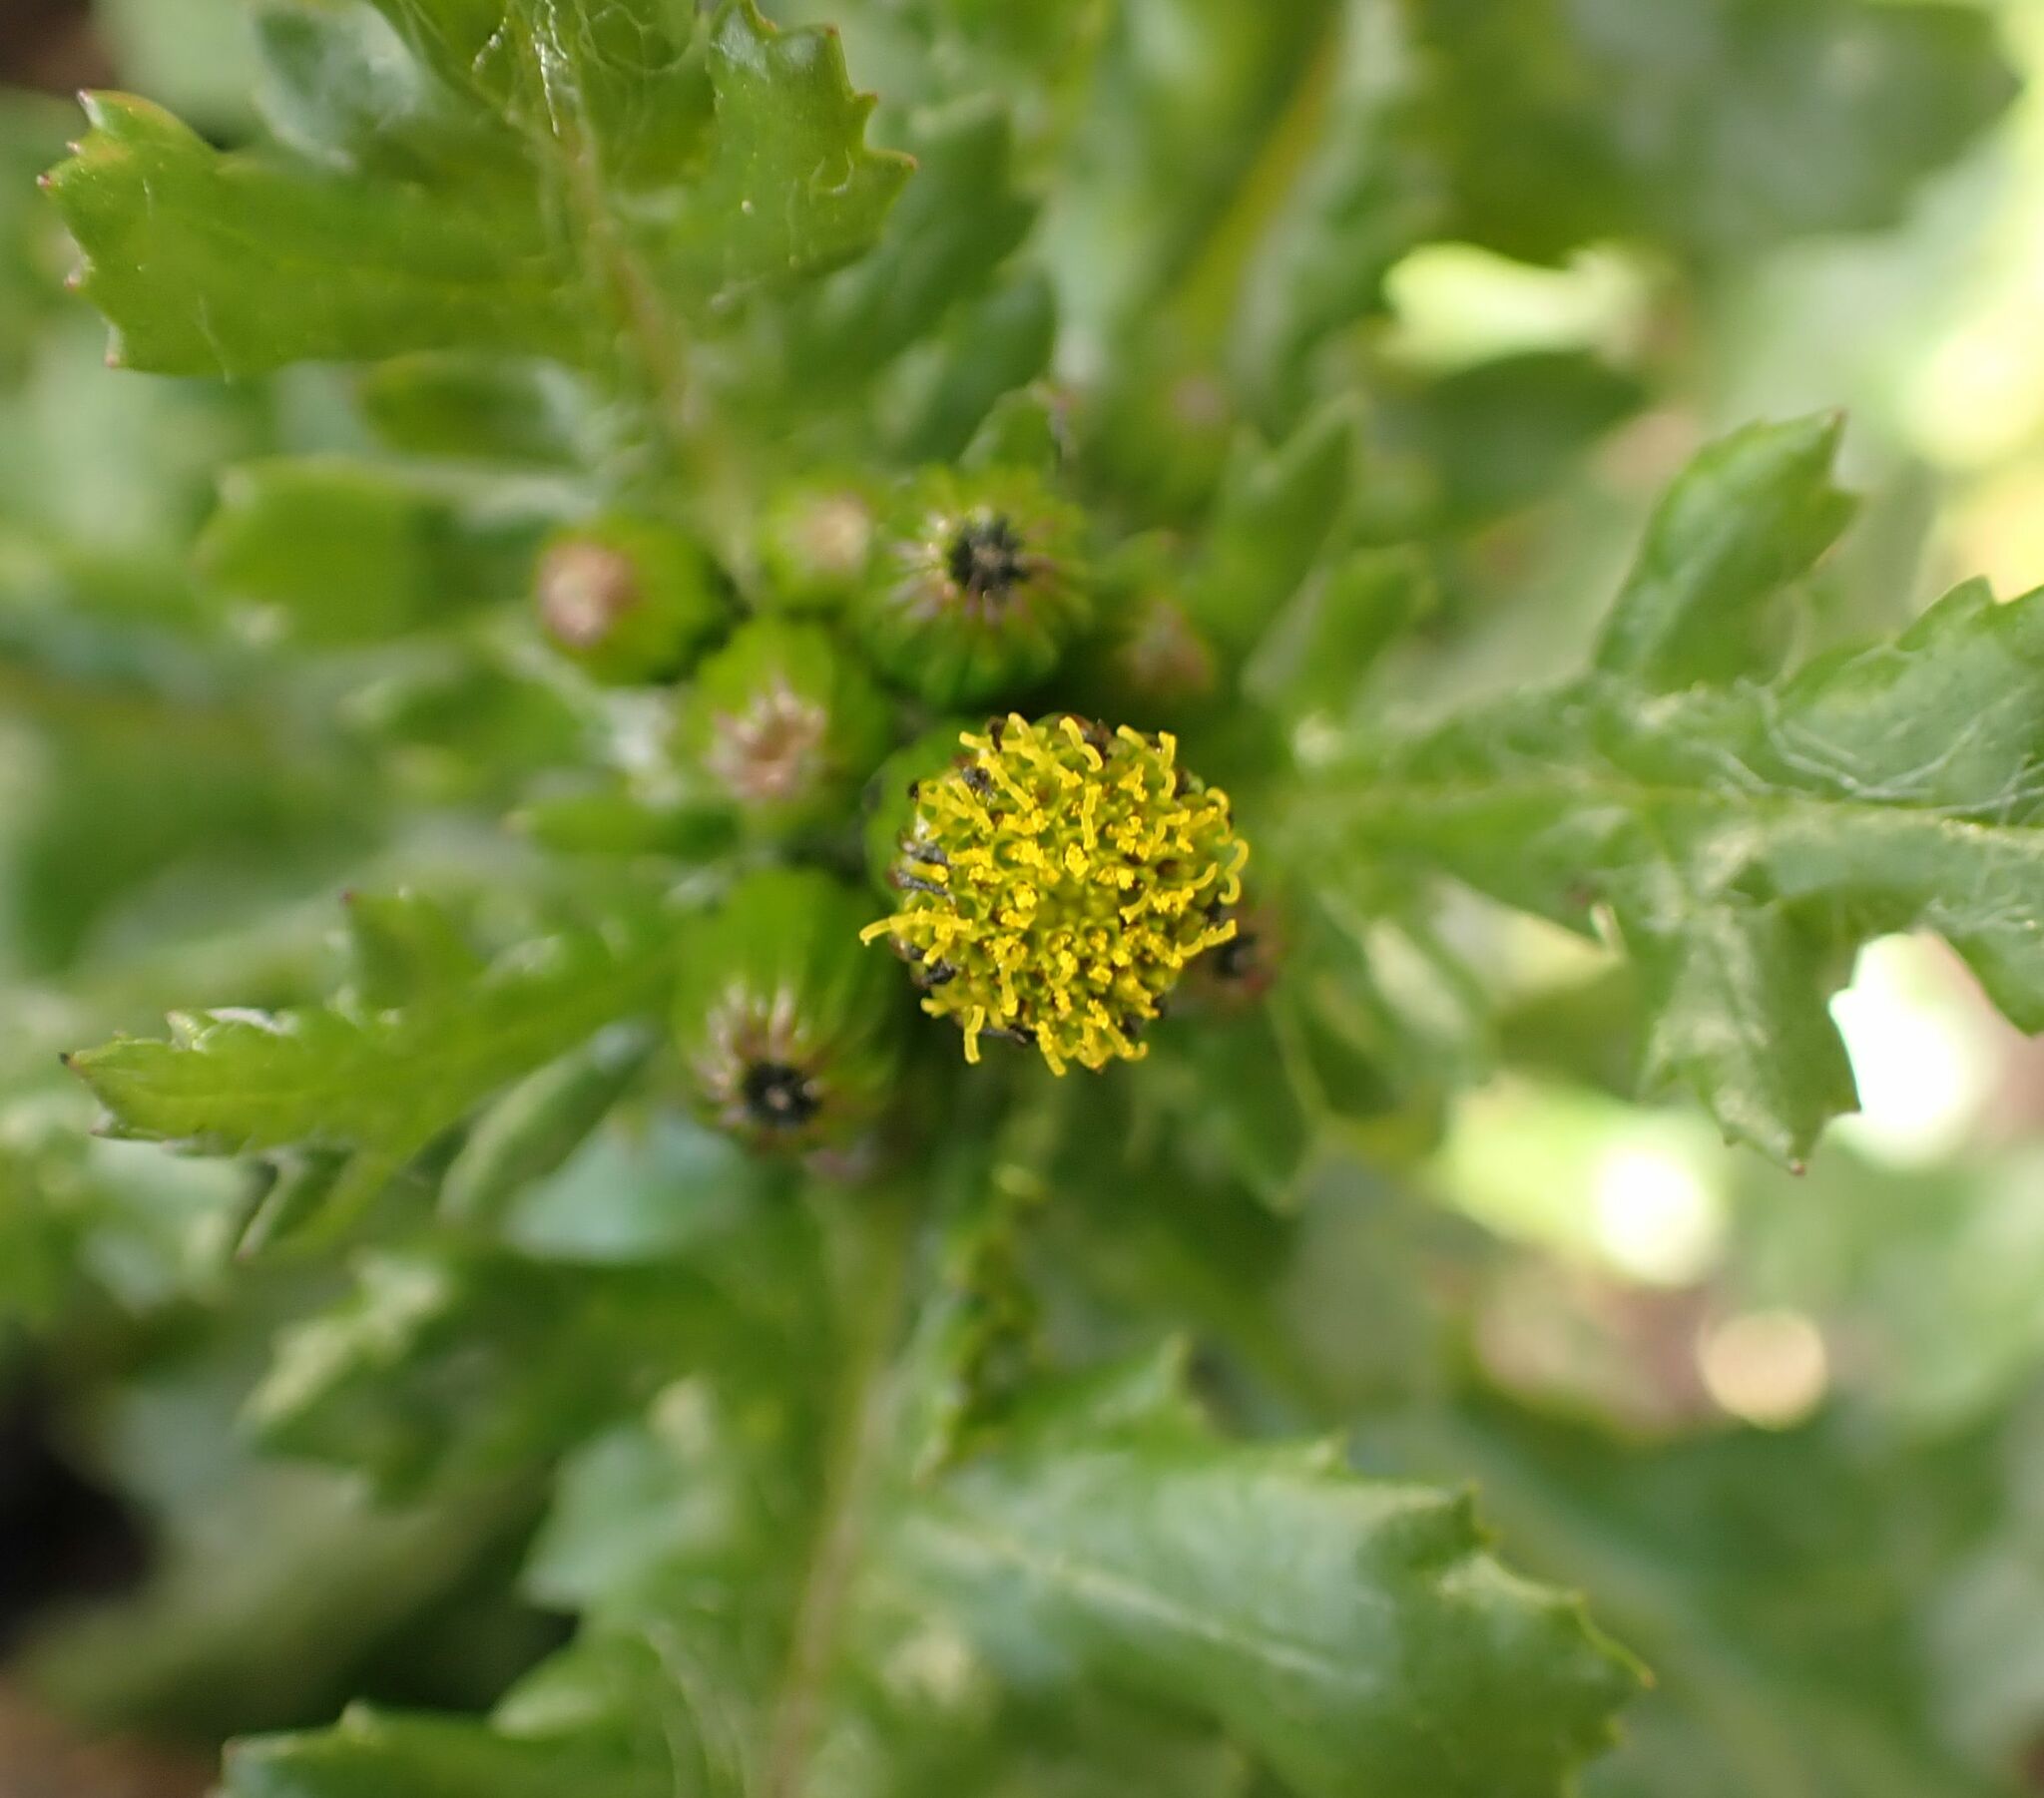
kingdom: Plantae
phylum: Tracheophyta
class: Magnoliopsida
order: Asterales
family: Asteraceae
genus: Senecio
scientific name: Senecio vulgaris
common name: Old-man-in-the-spring
